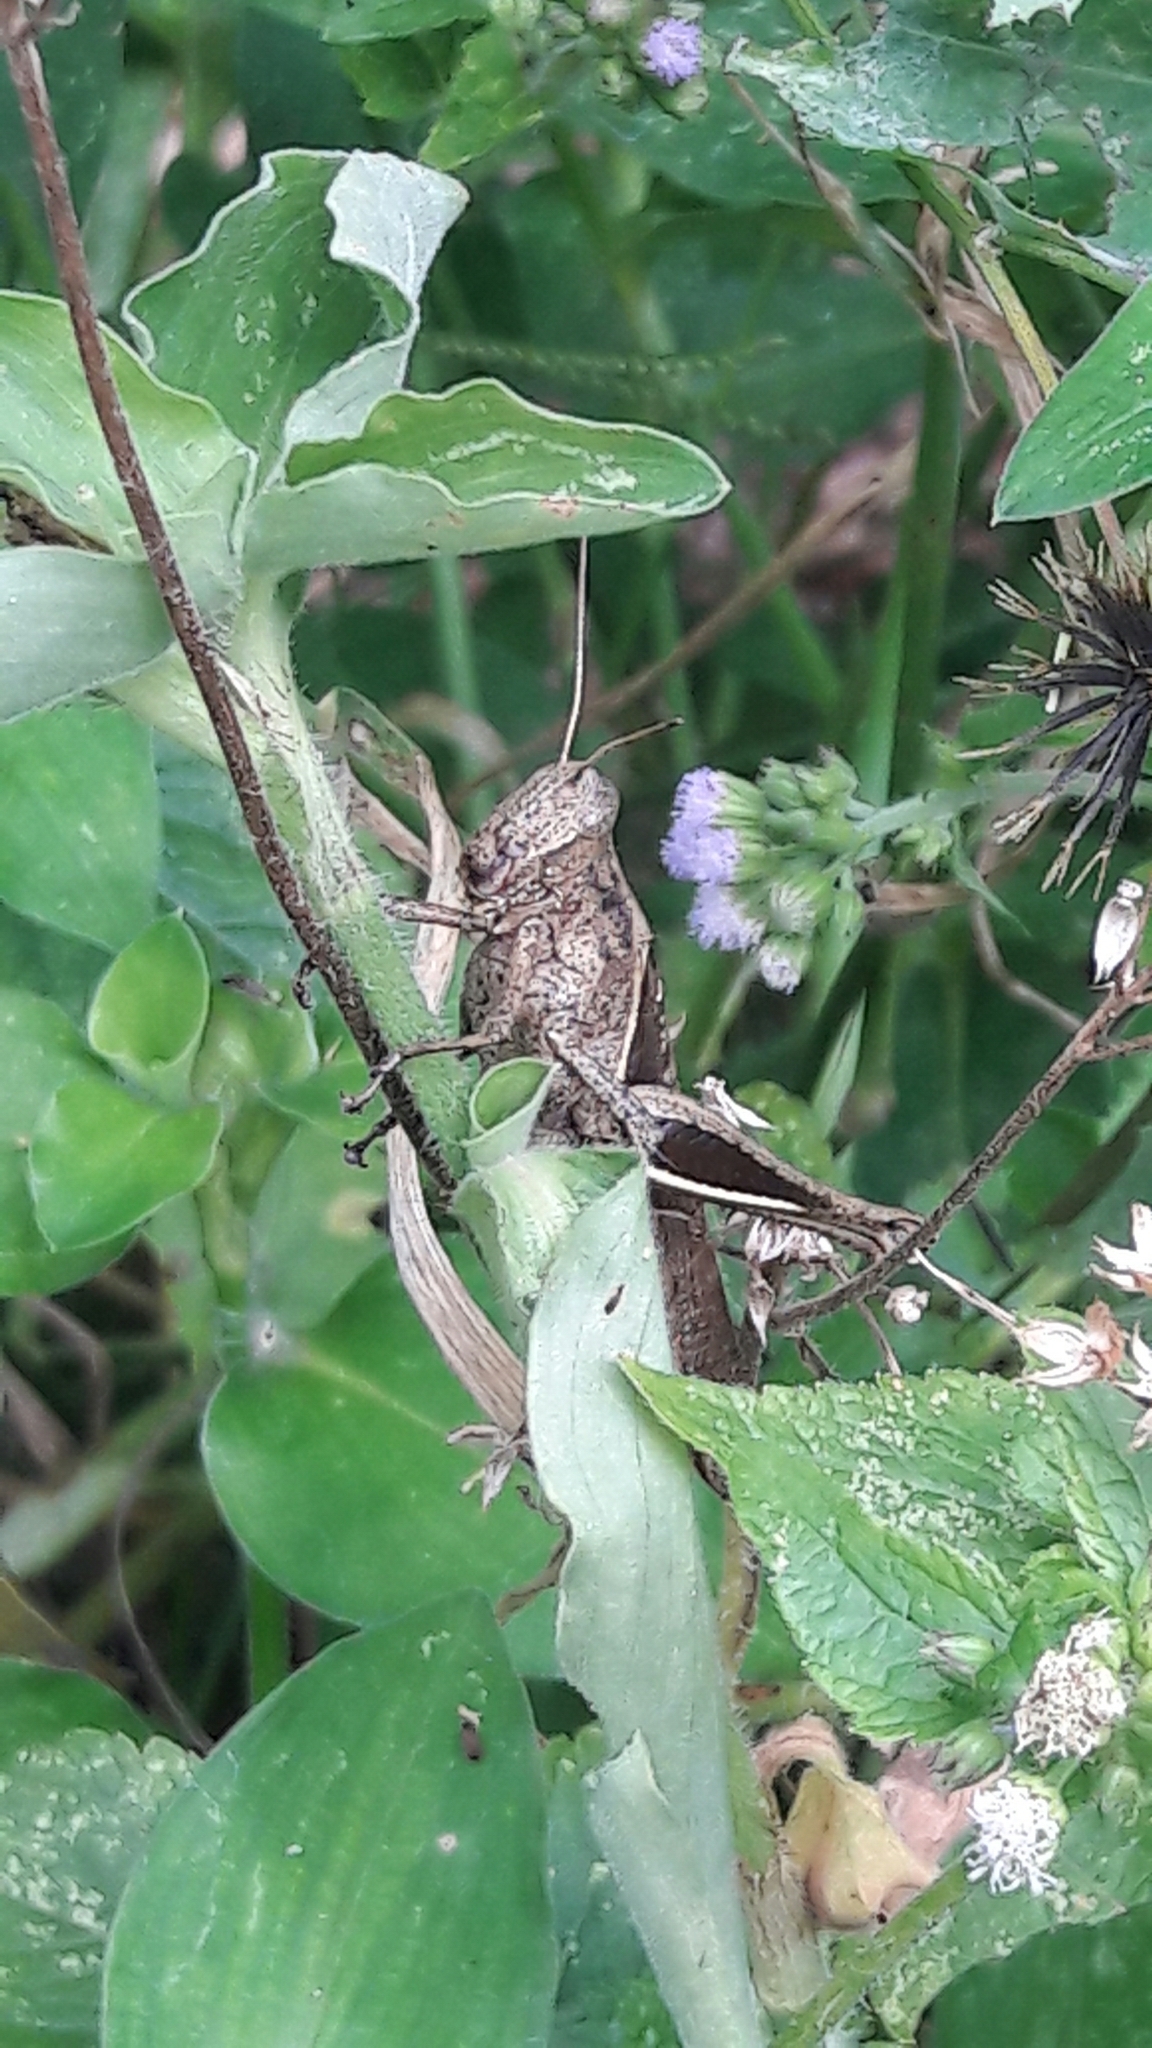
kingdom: Animalia
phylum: Arthropoda
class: Insecta
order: Orthoptera
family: Acrididae
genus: Abracris
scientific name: Abracris flavolineata
